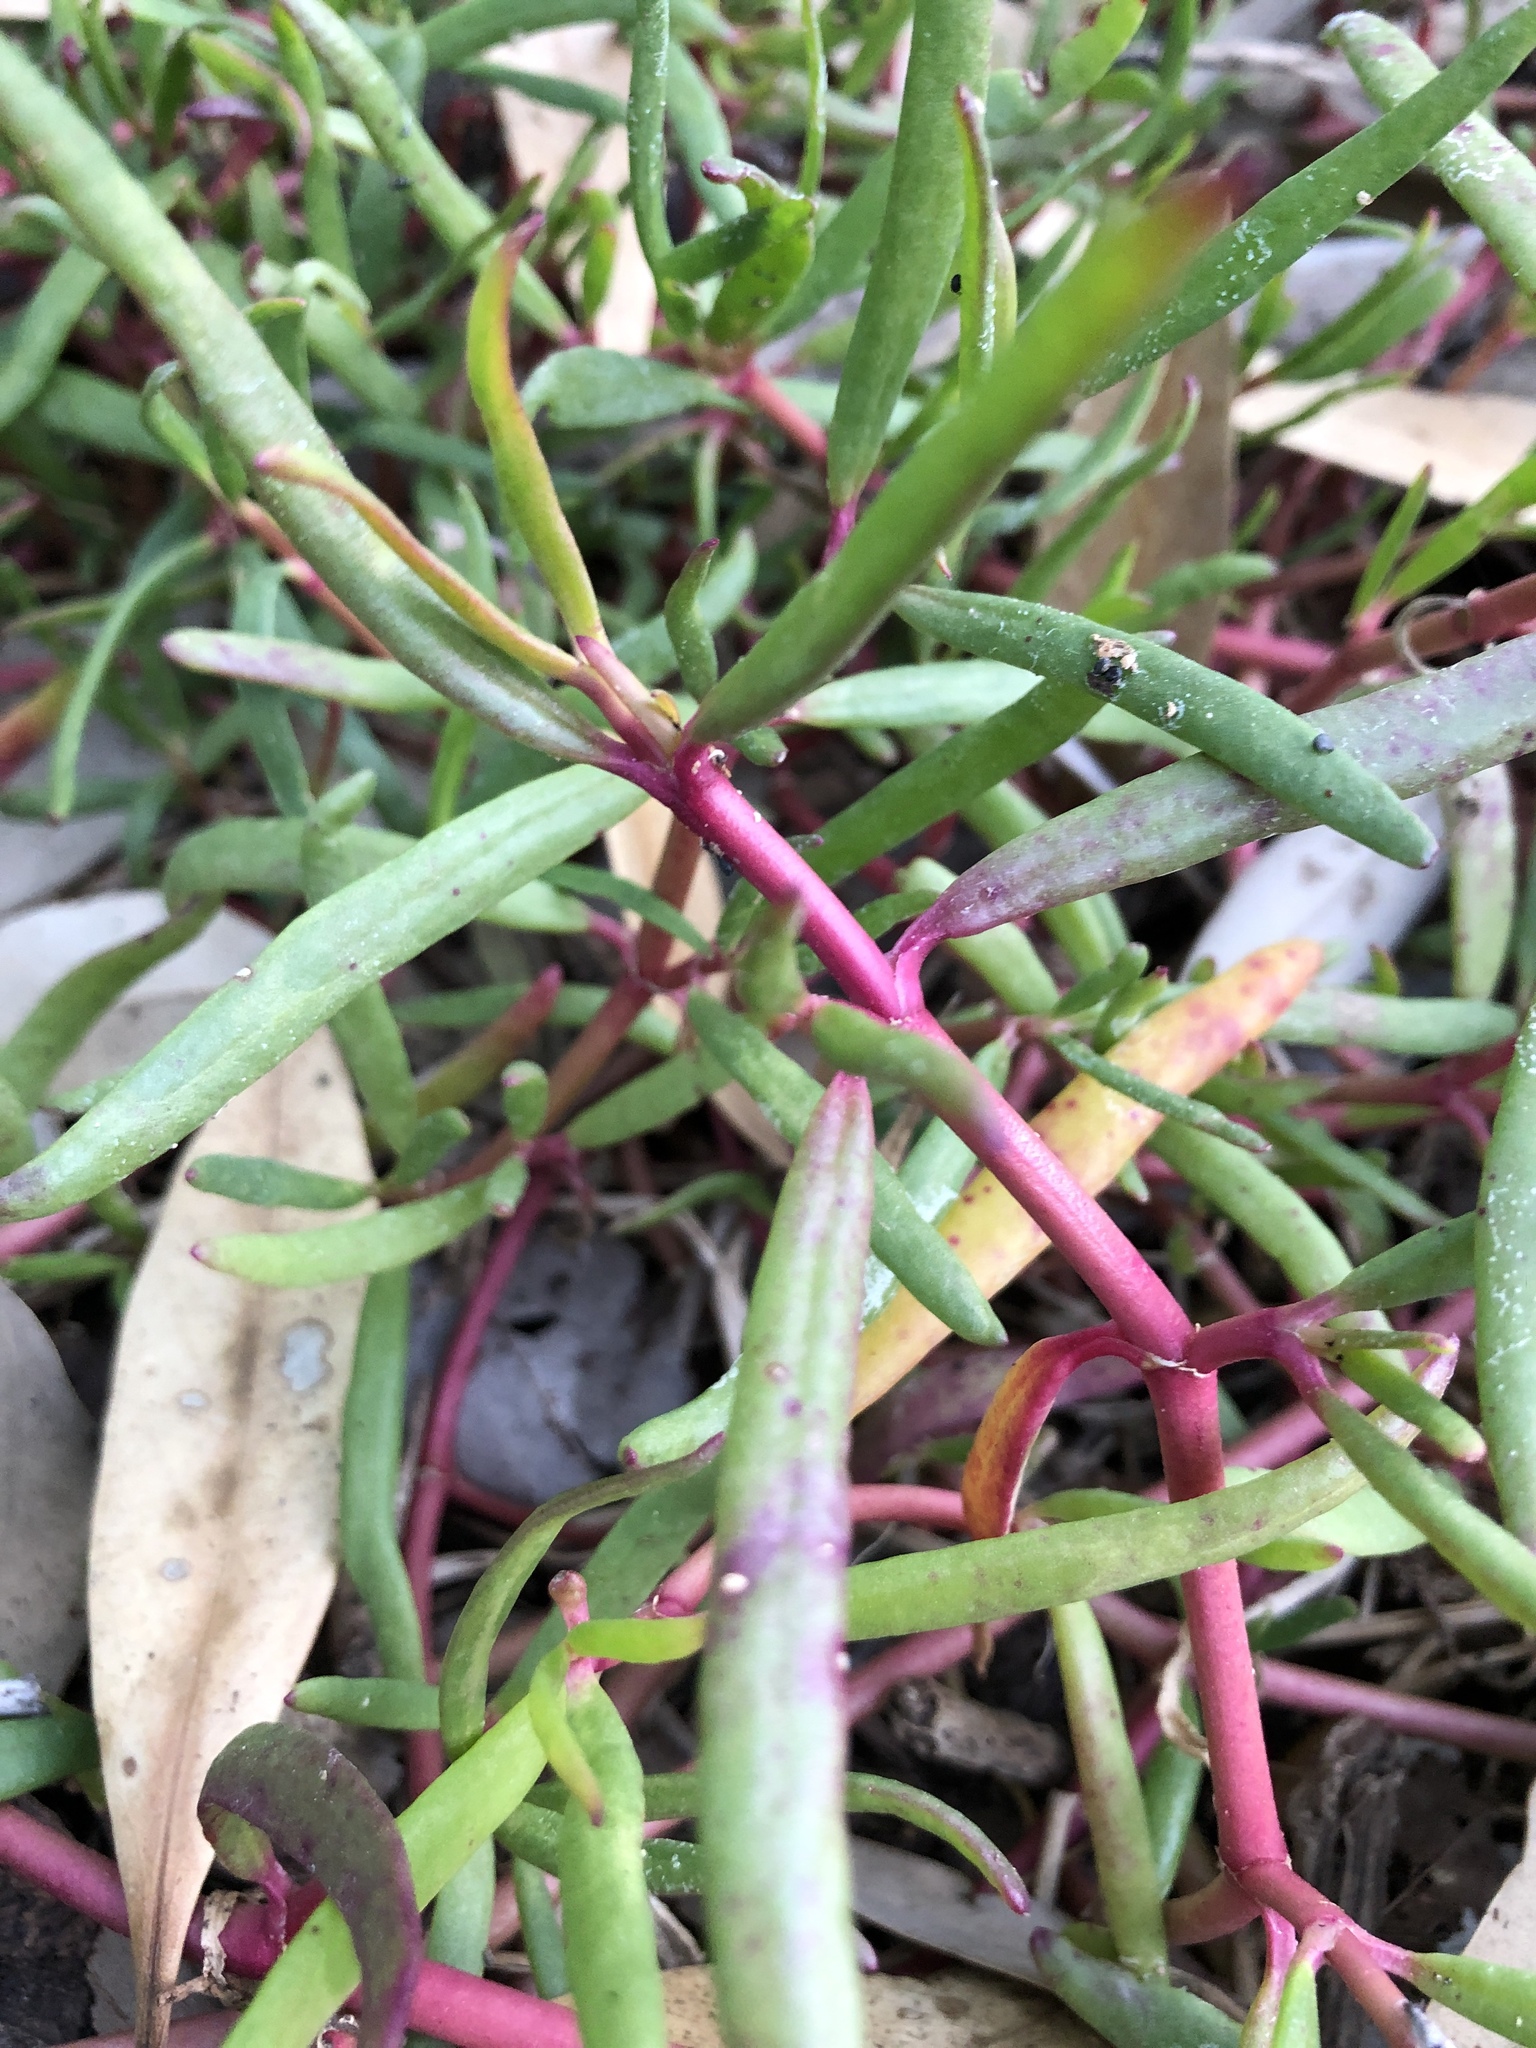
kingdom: Plantae
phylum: Tracheophyta
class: Magnoliopsida
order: Caryophyllales
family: Aizoaceae
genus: Sesuvium
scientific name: Sesuvium portulacastrum
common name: Sea-purslane
